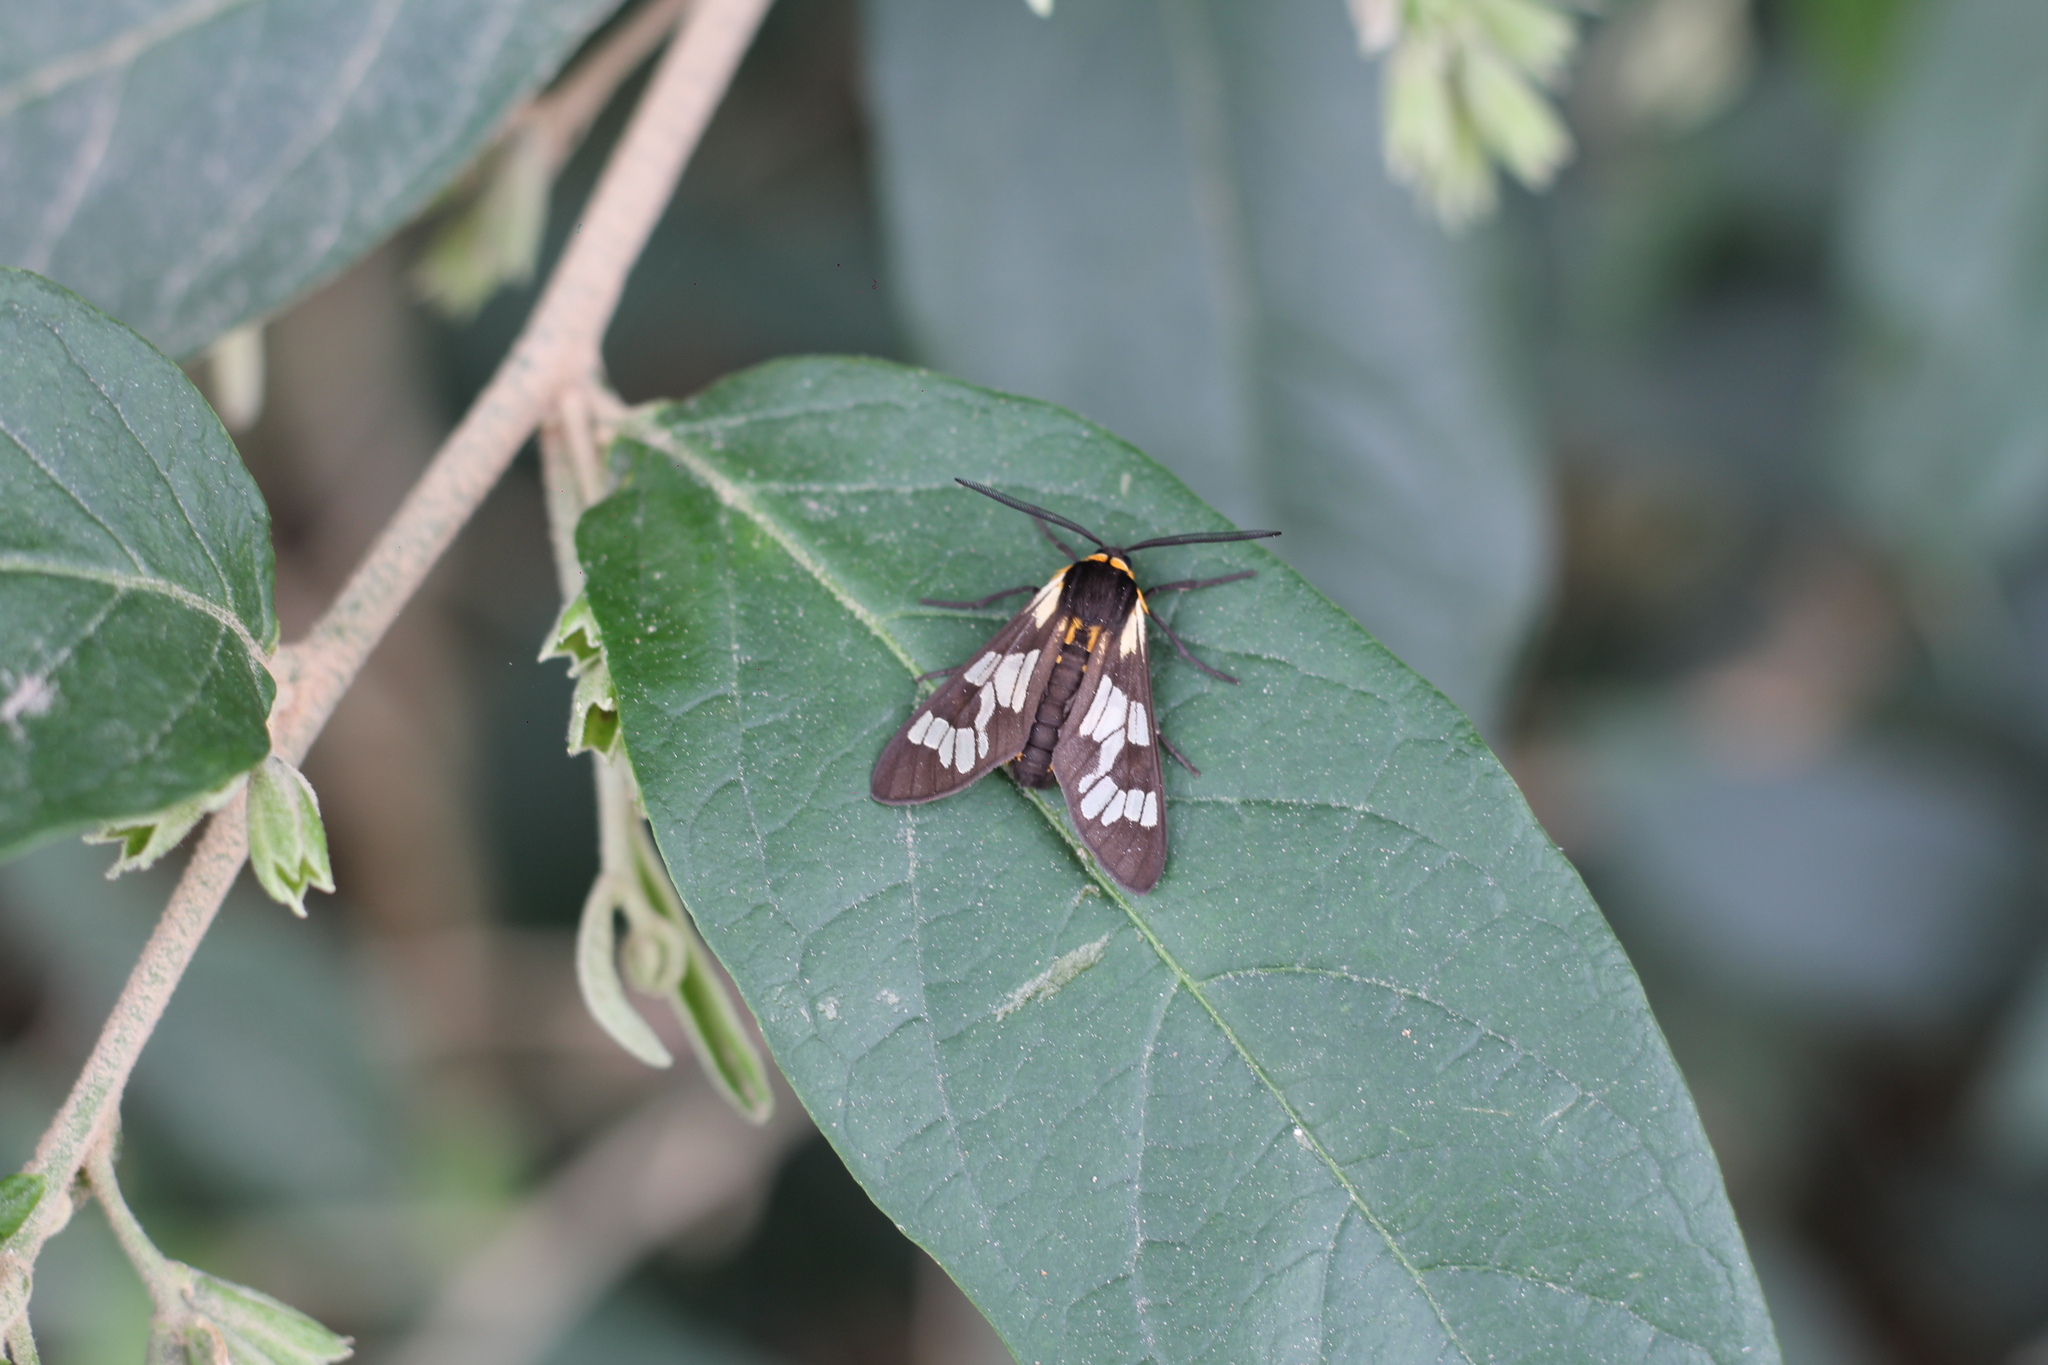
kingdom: Animalia
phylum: Arthropoda
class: Insecta
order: Lepidoptera
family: Erebidae
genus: Eurata
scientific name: Eurata
